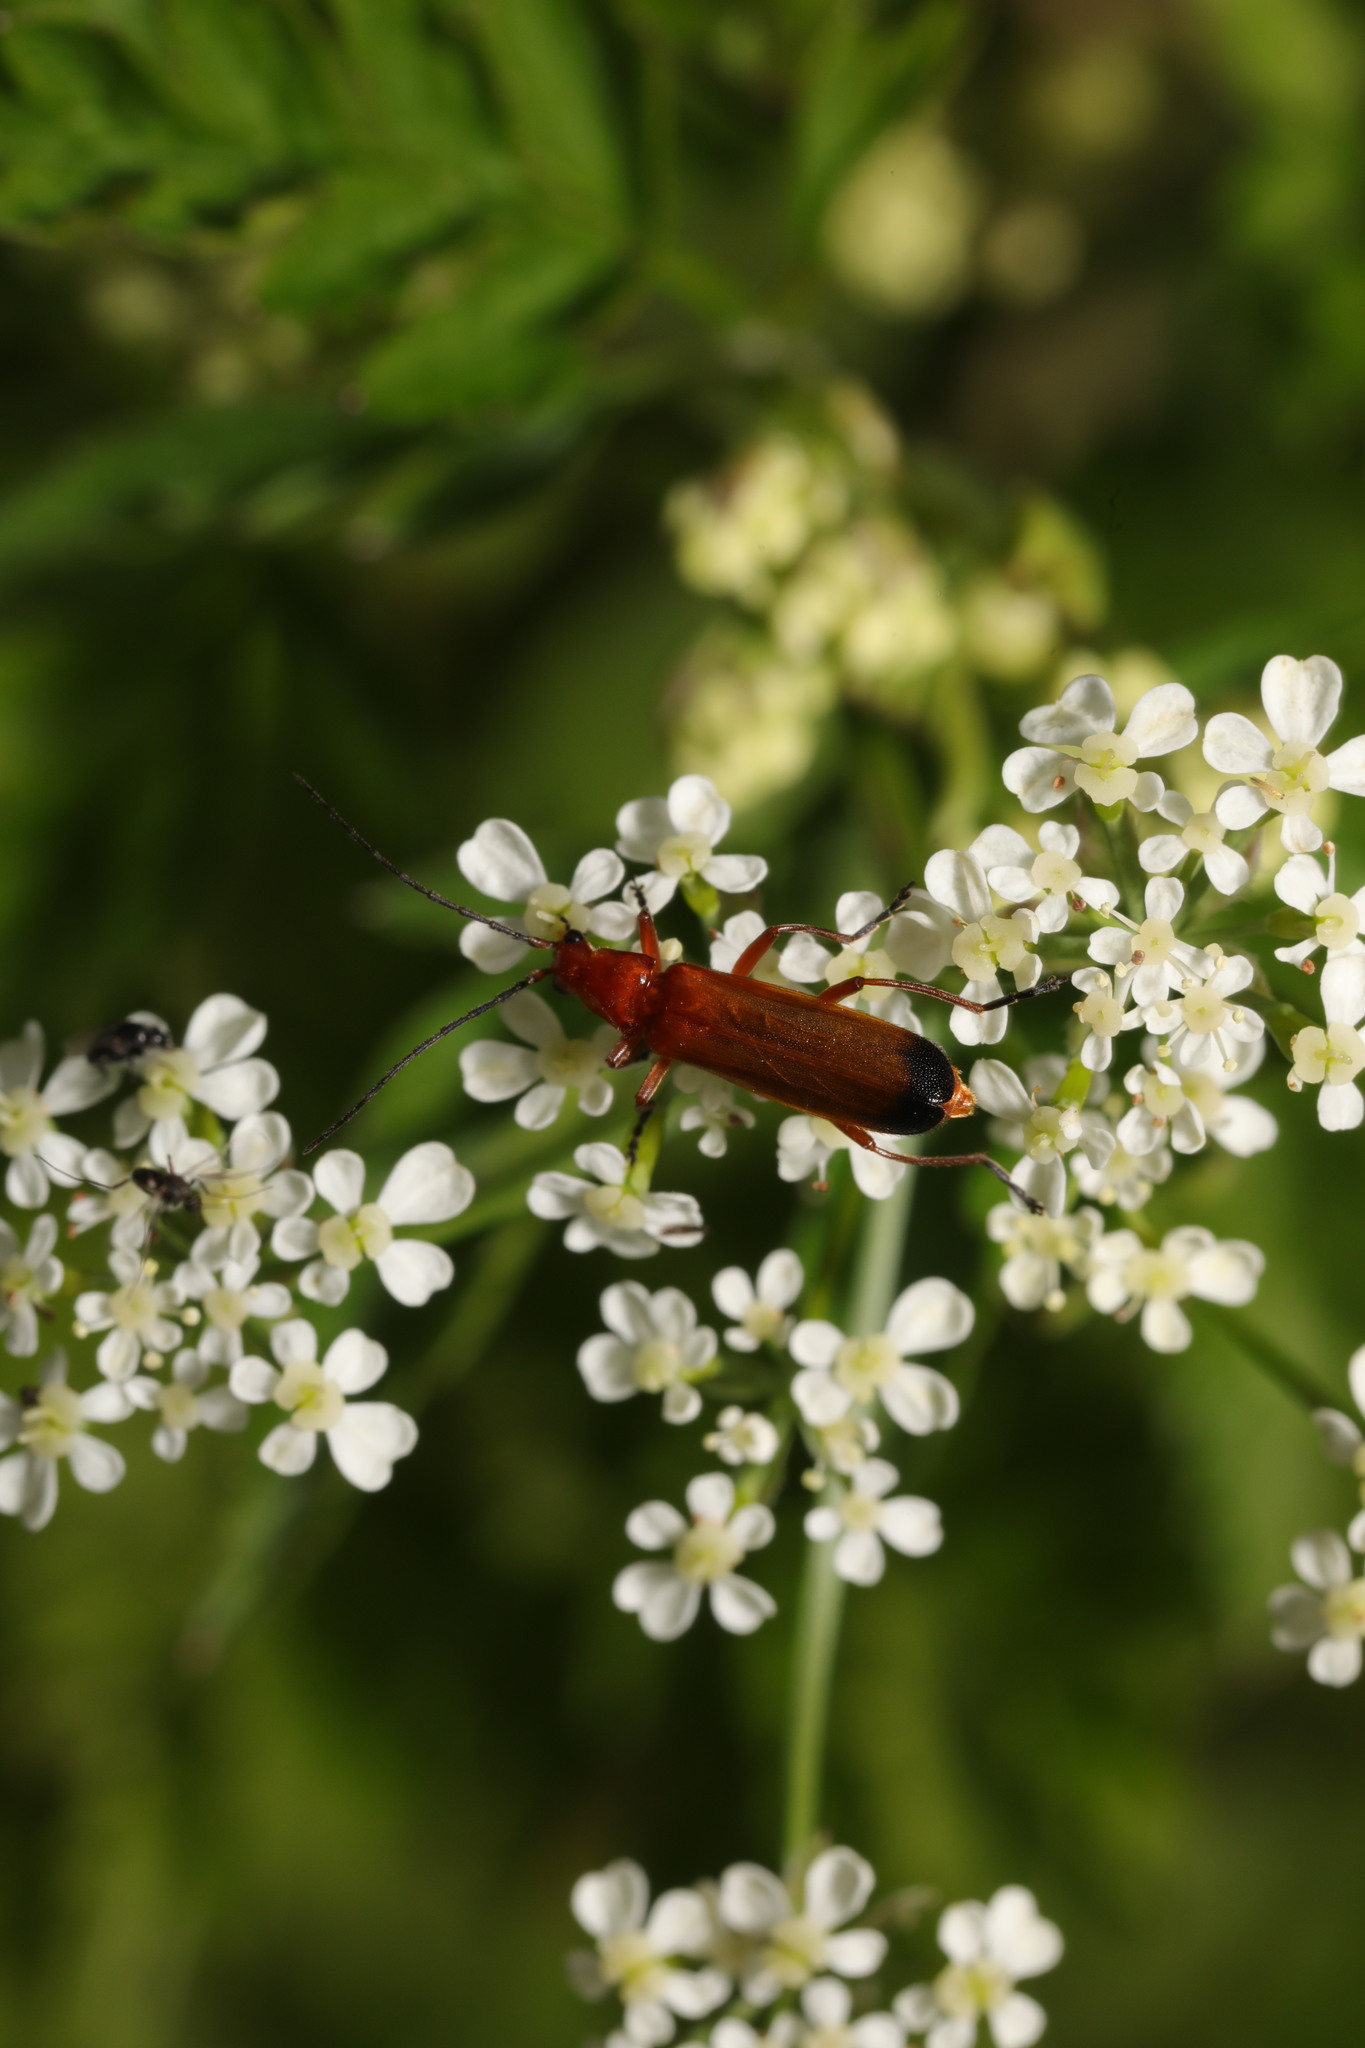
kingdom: Animalia
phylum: Arthropoda
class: Insecta
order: Coleoptera
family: Cantharidae
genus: Rhagonycha
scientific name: Rhagonycha fulva
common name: Common red soldier beetle
